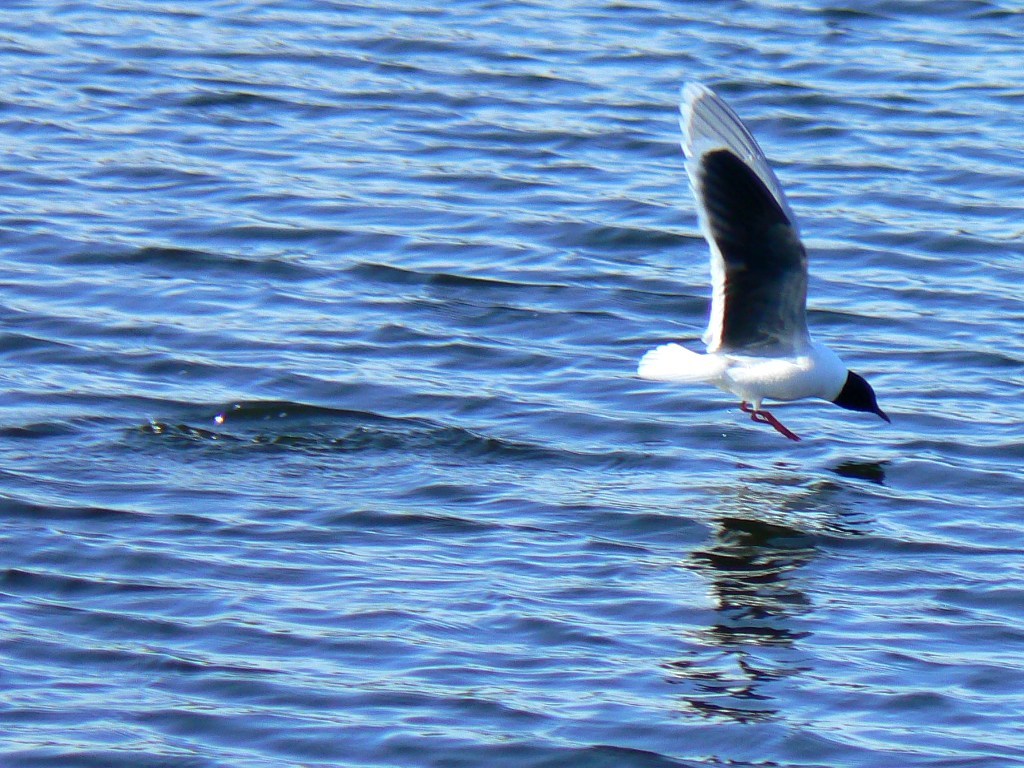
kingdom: Animalia
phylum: Chordata
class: Aves
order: Charadriiformes
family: Laridae
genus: Hydrocoloeus
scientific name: Hydrocoloeus minutus
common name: Little gull
